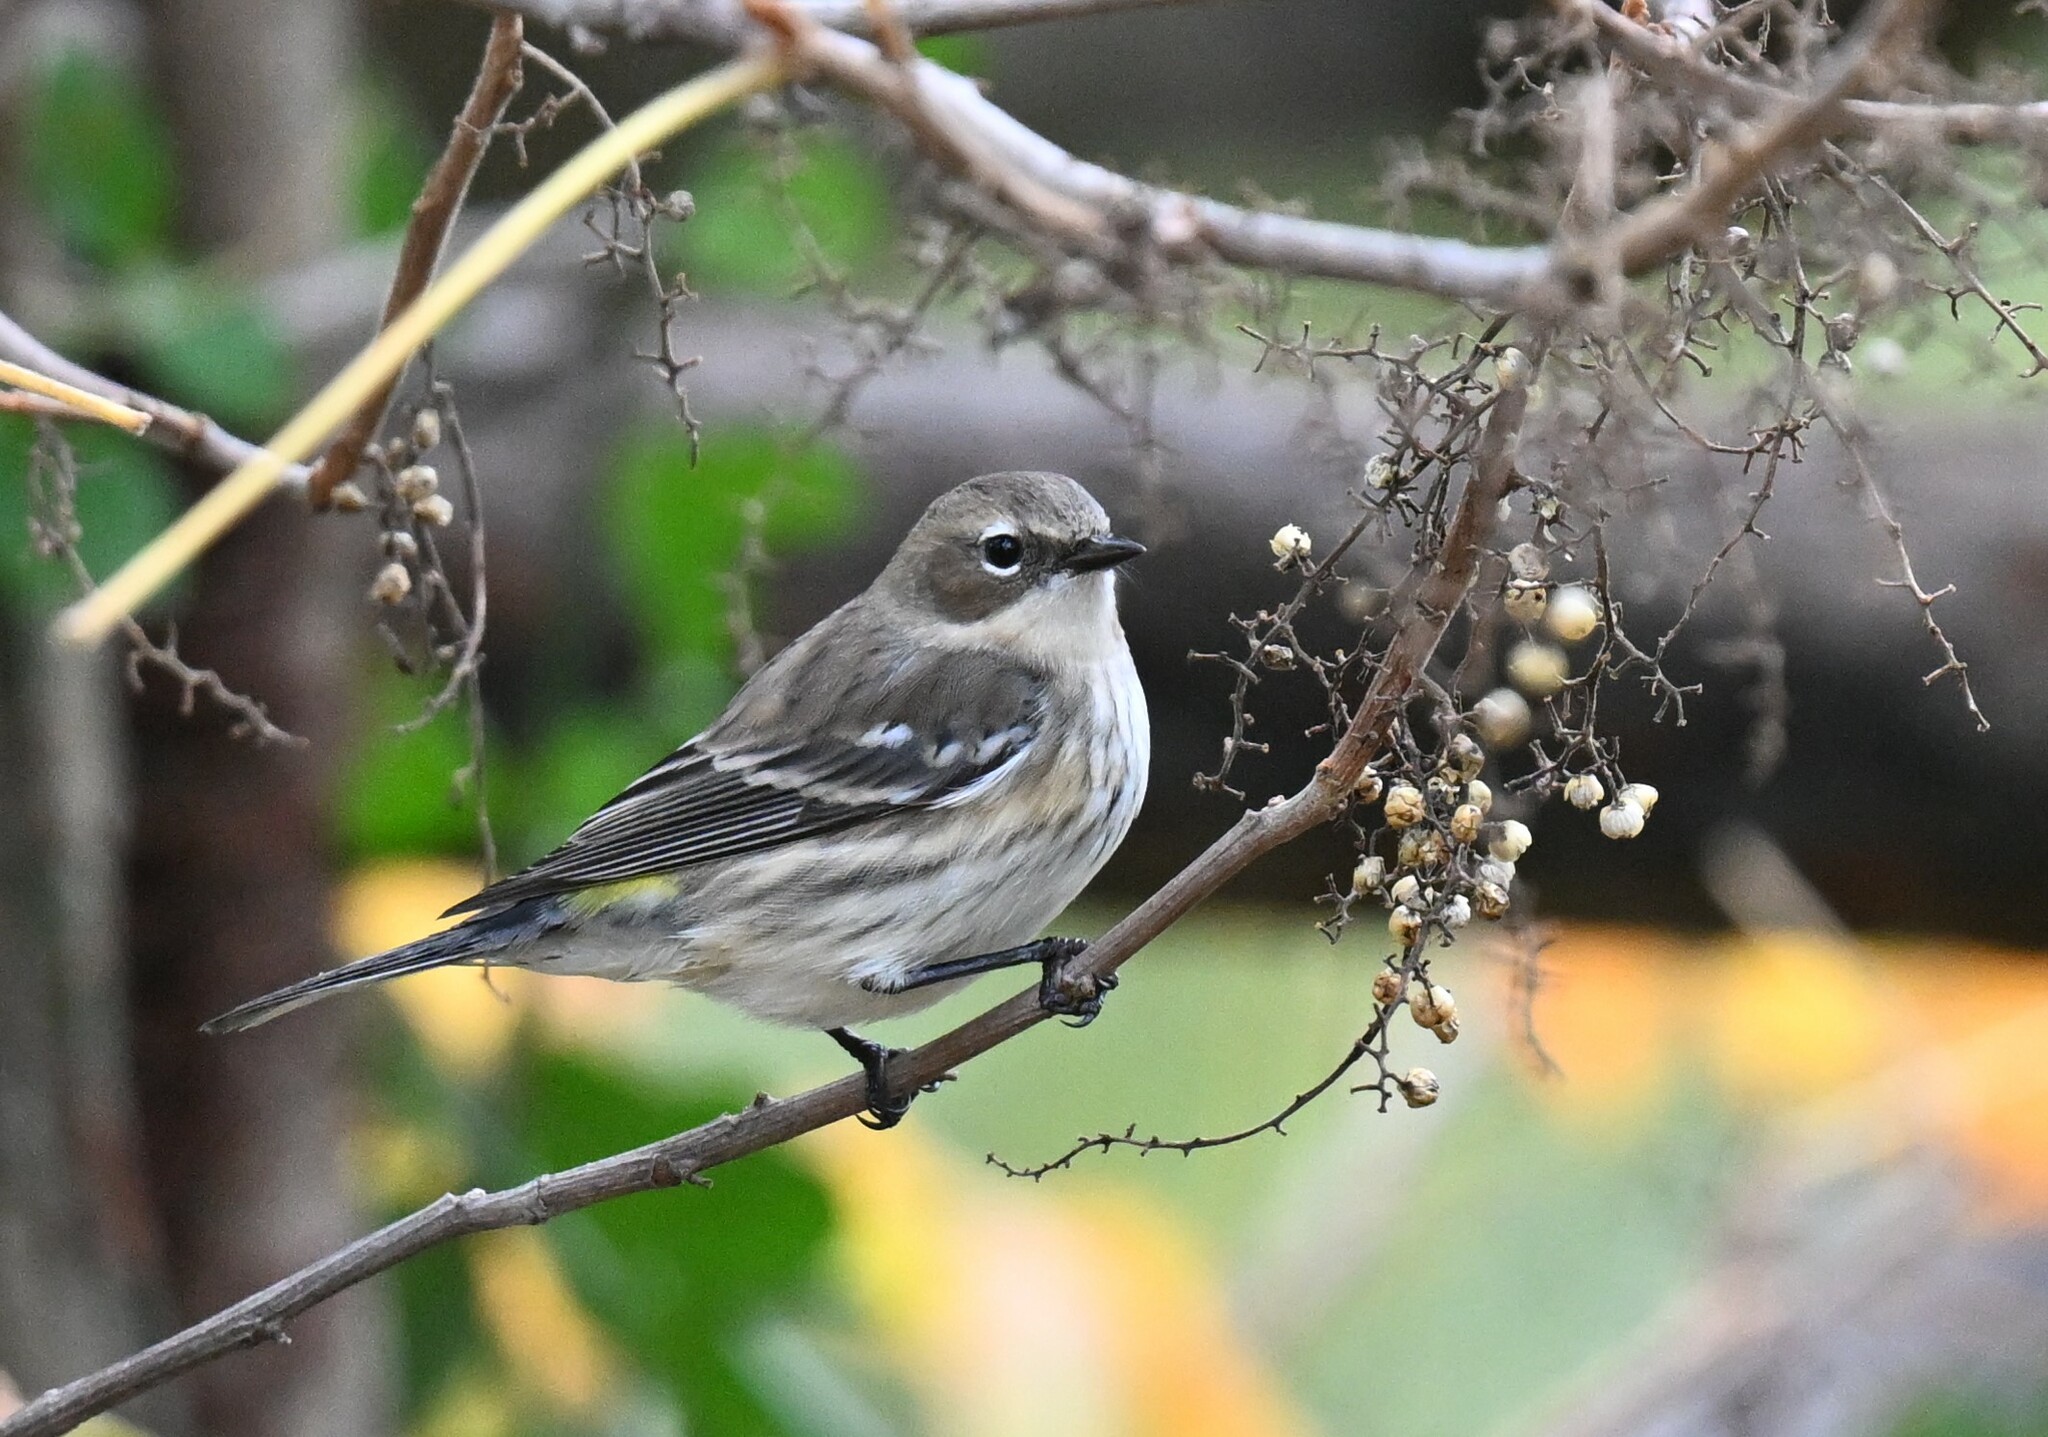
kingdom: Animalia
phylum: Chordata
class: Aves
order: Passeriformes
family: Parulidae
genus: Setophaga
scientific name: Setophaga coronata
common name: Myrtle warbler
